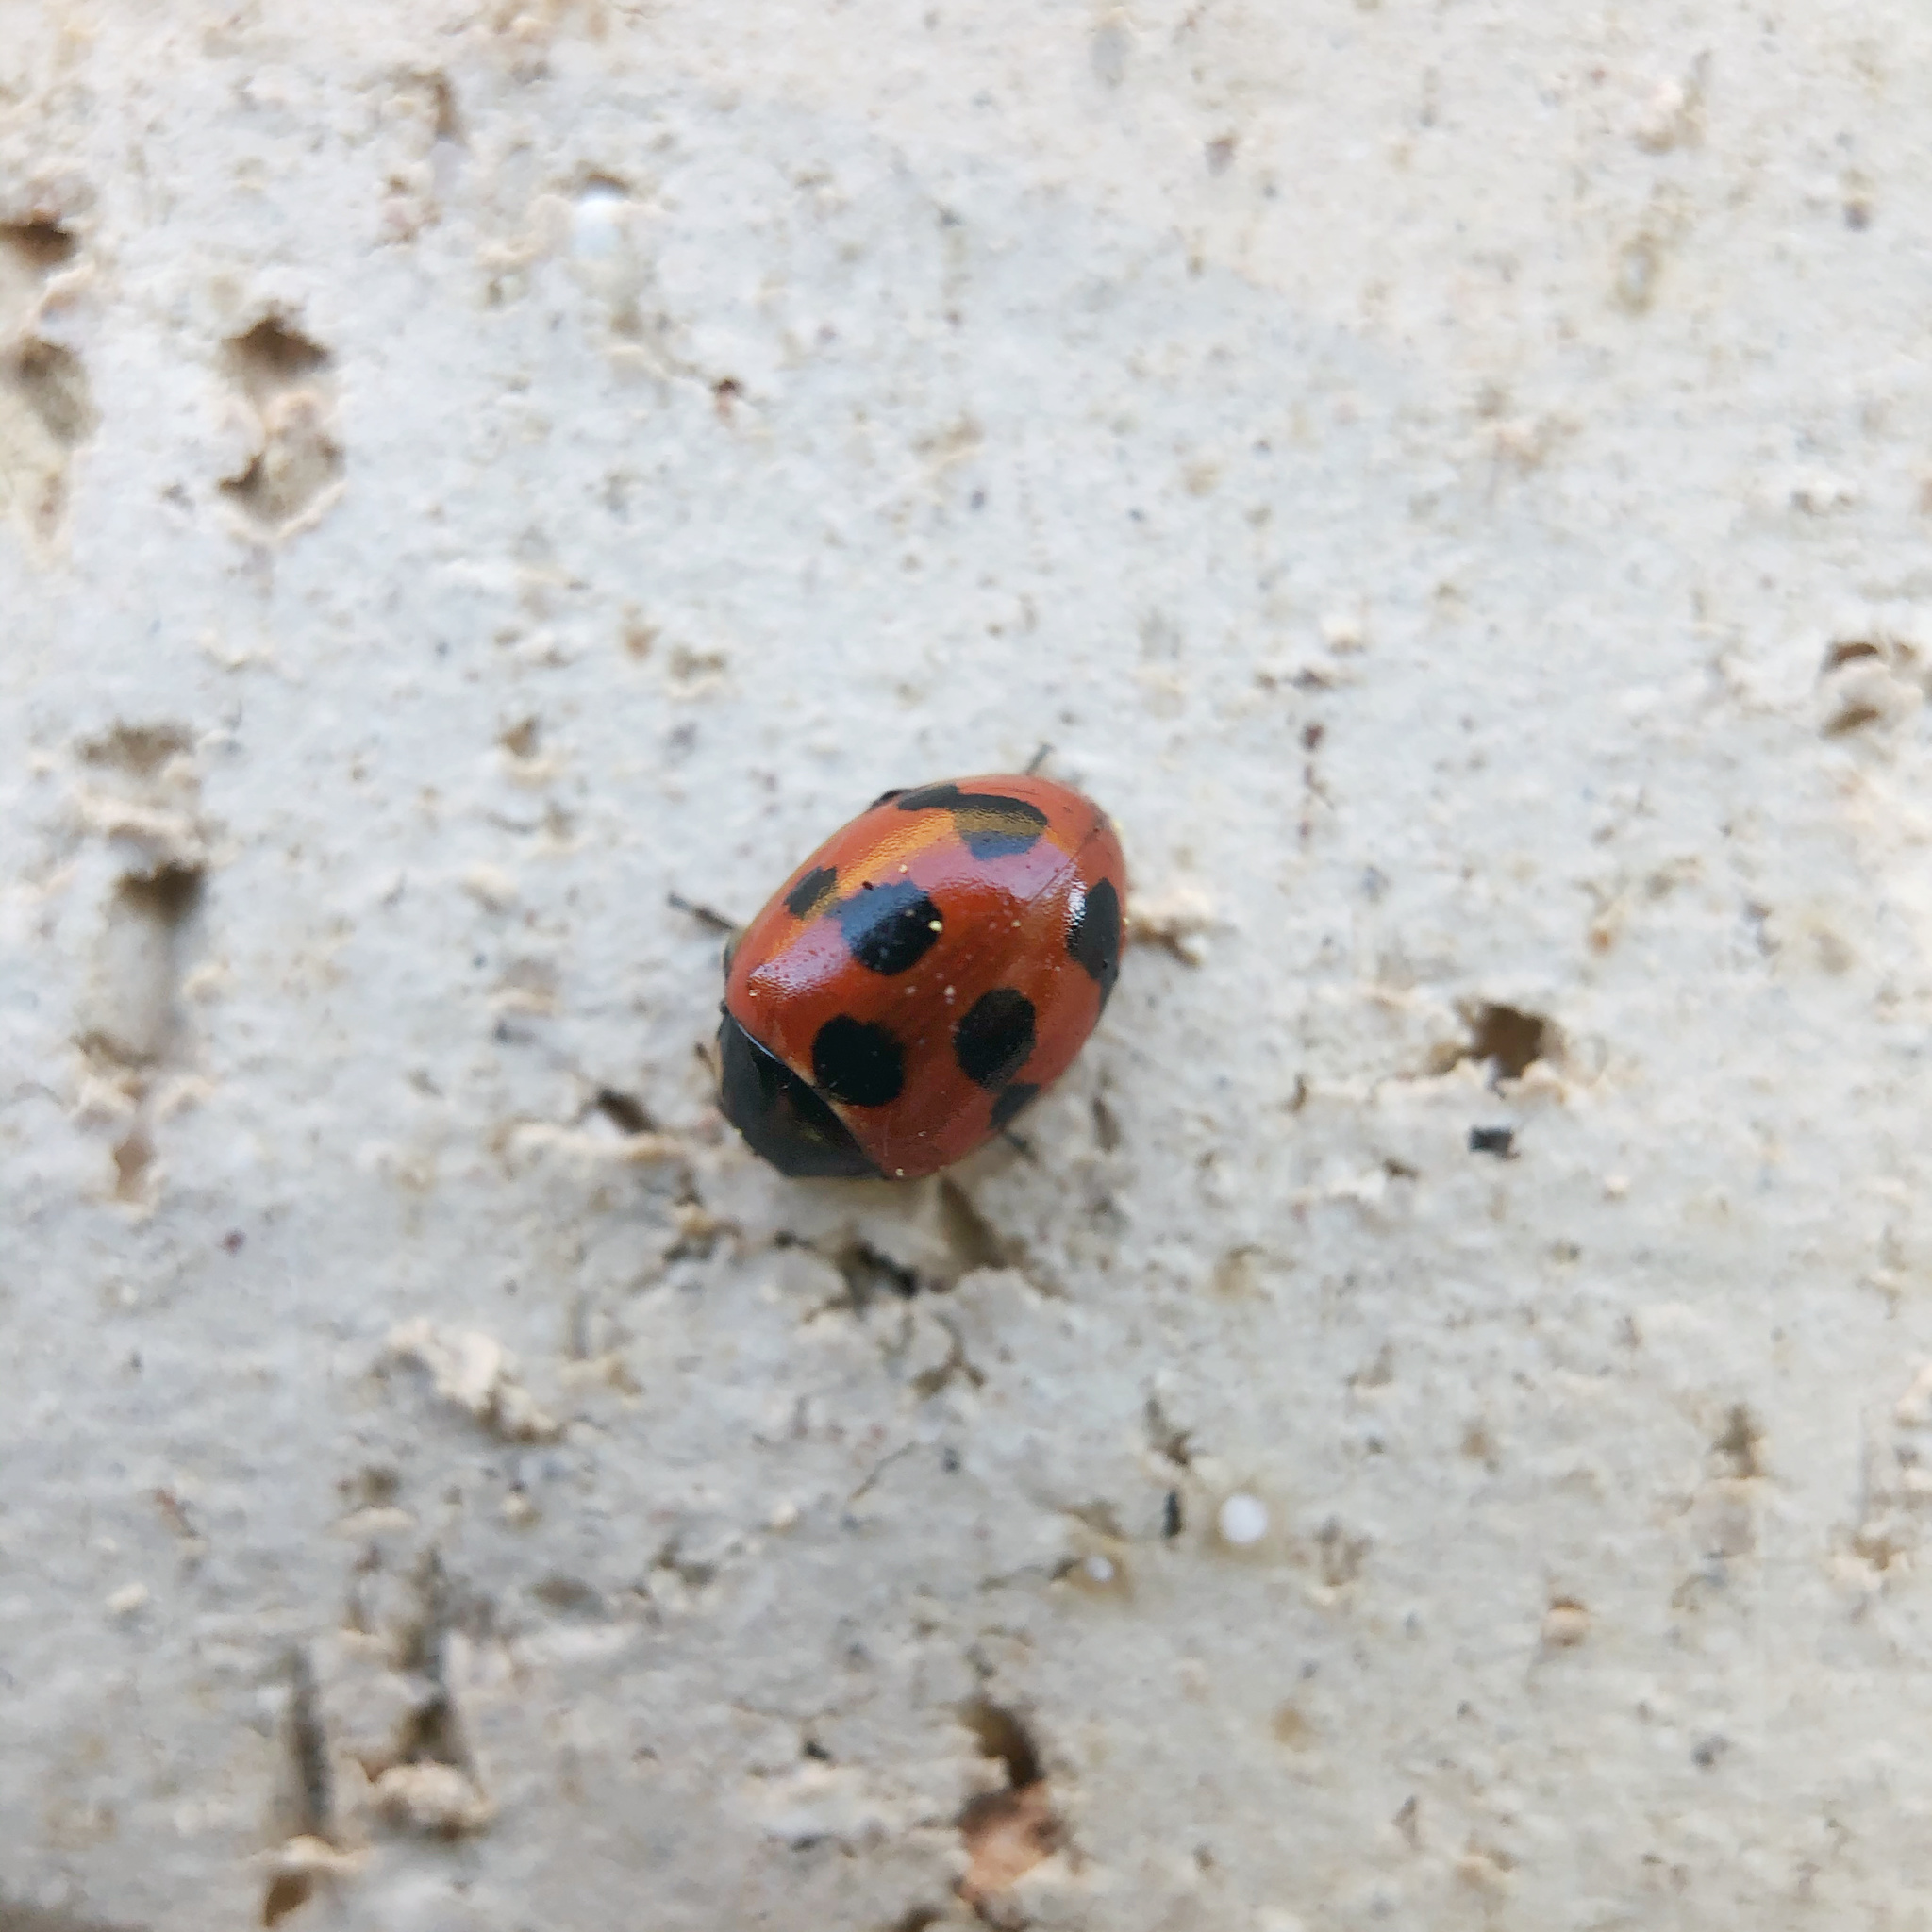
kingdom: Animalia
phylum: Arthropoda
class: Insecta
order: Coleoptera
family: Coccinellidae
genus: Coccinella
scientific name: Coccinella undecimpunctata
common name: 11-spot ladybird
